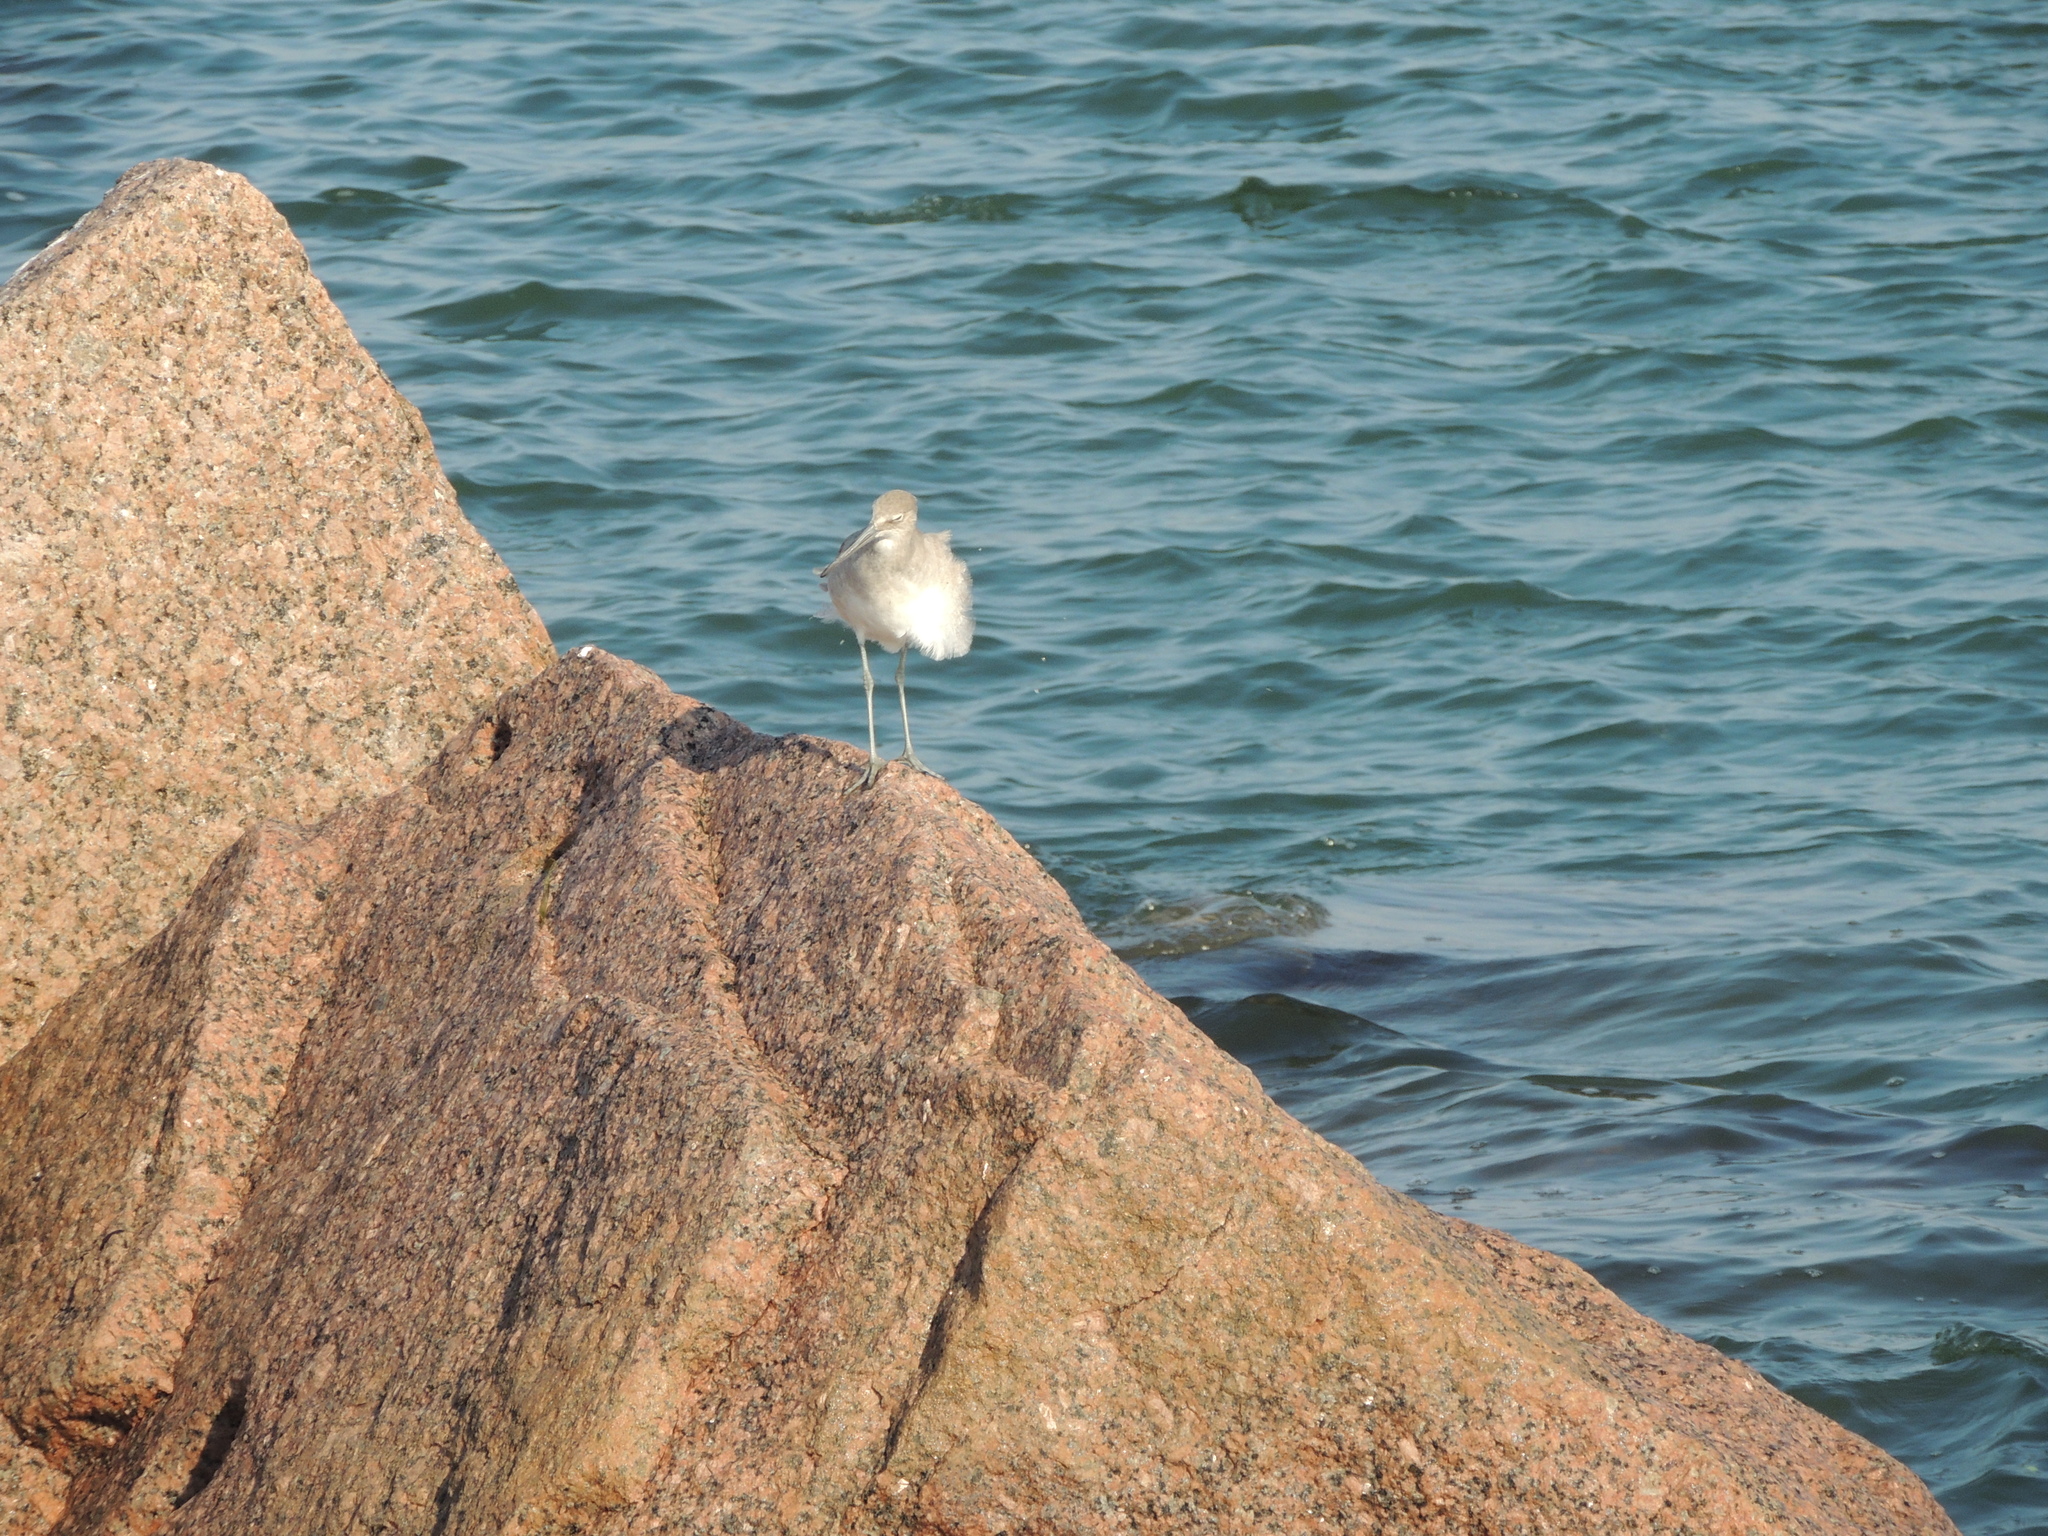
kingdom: Animalia
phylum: Chordata
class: Aves
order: Charadriiformes
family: Scolopacidae
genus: Tringa
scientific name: Tringa semipalmata
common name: Willet
